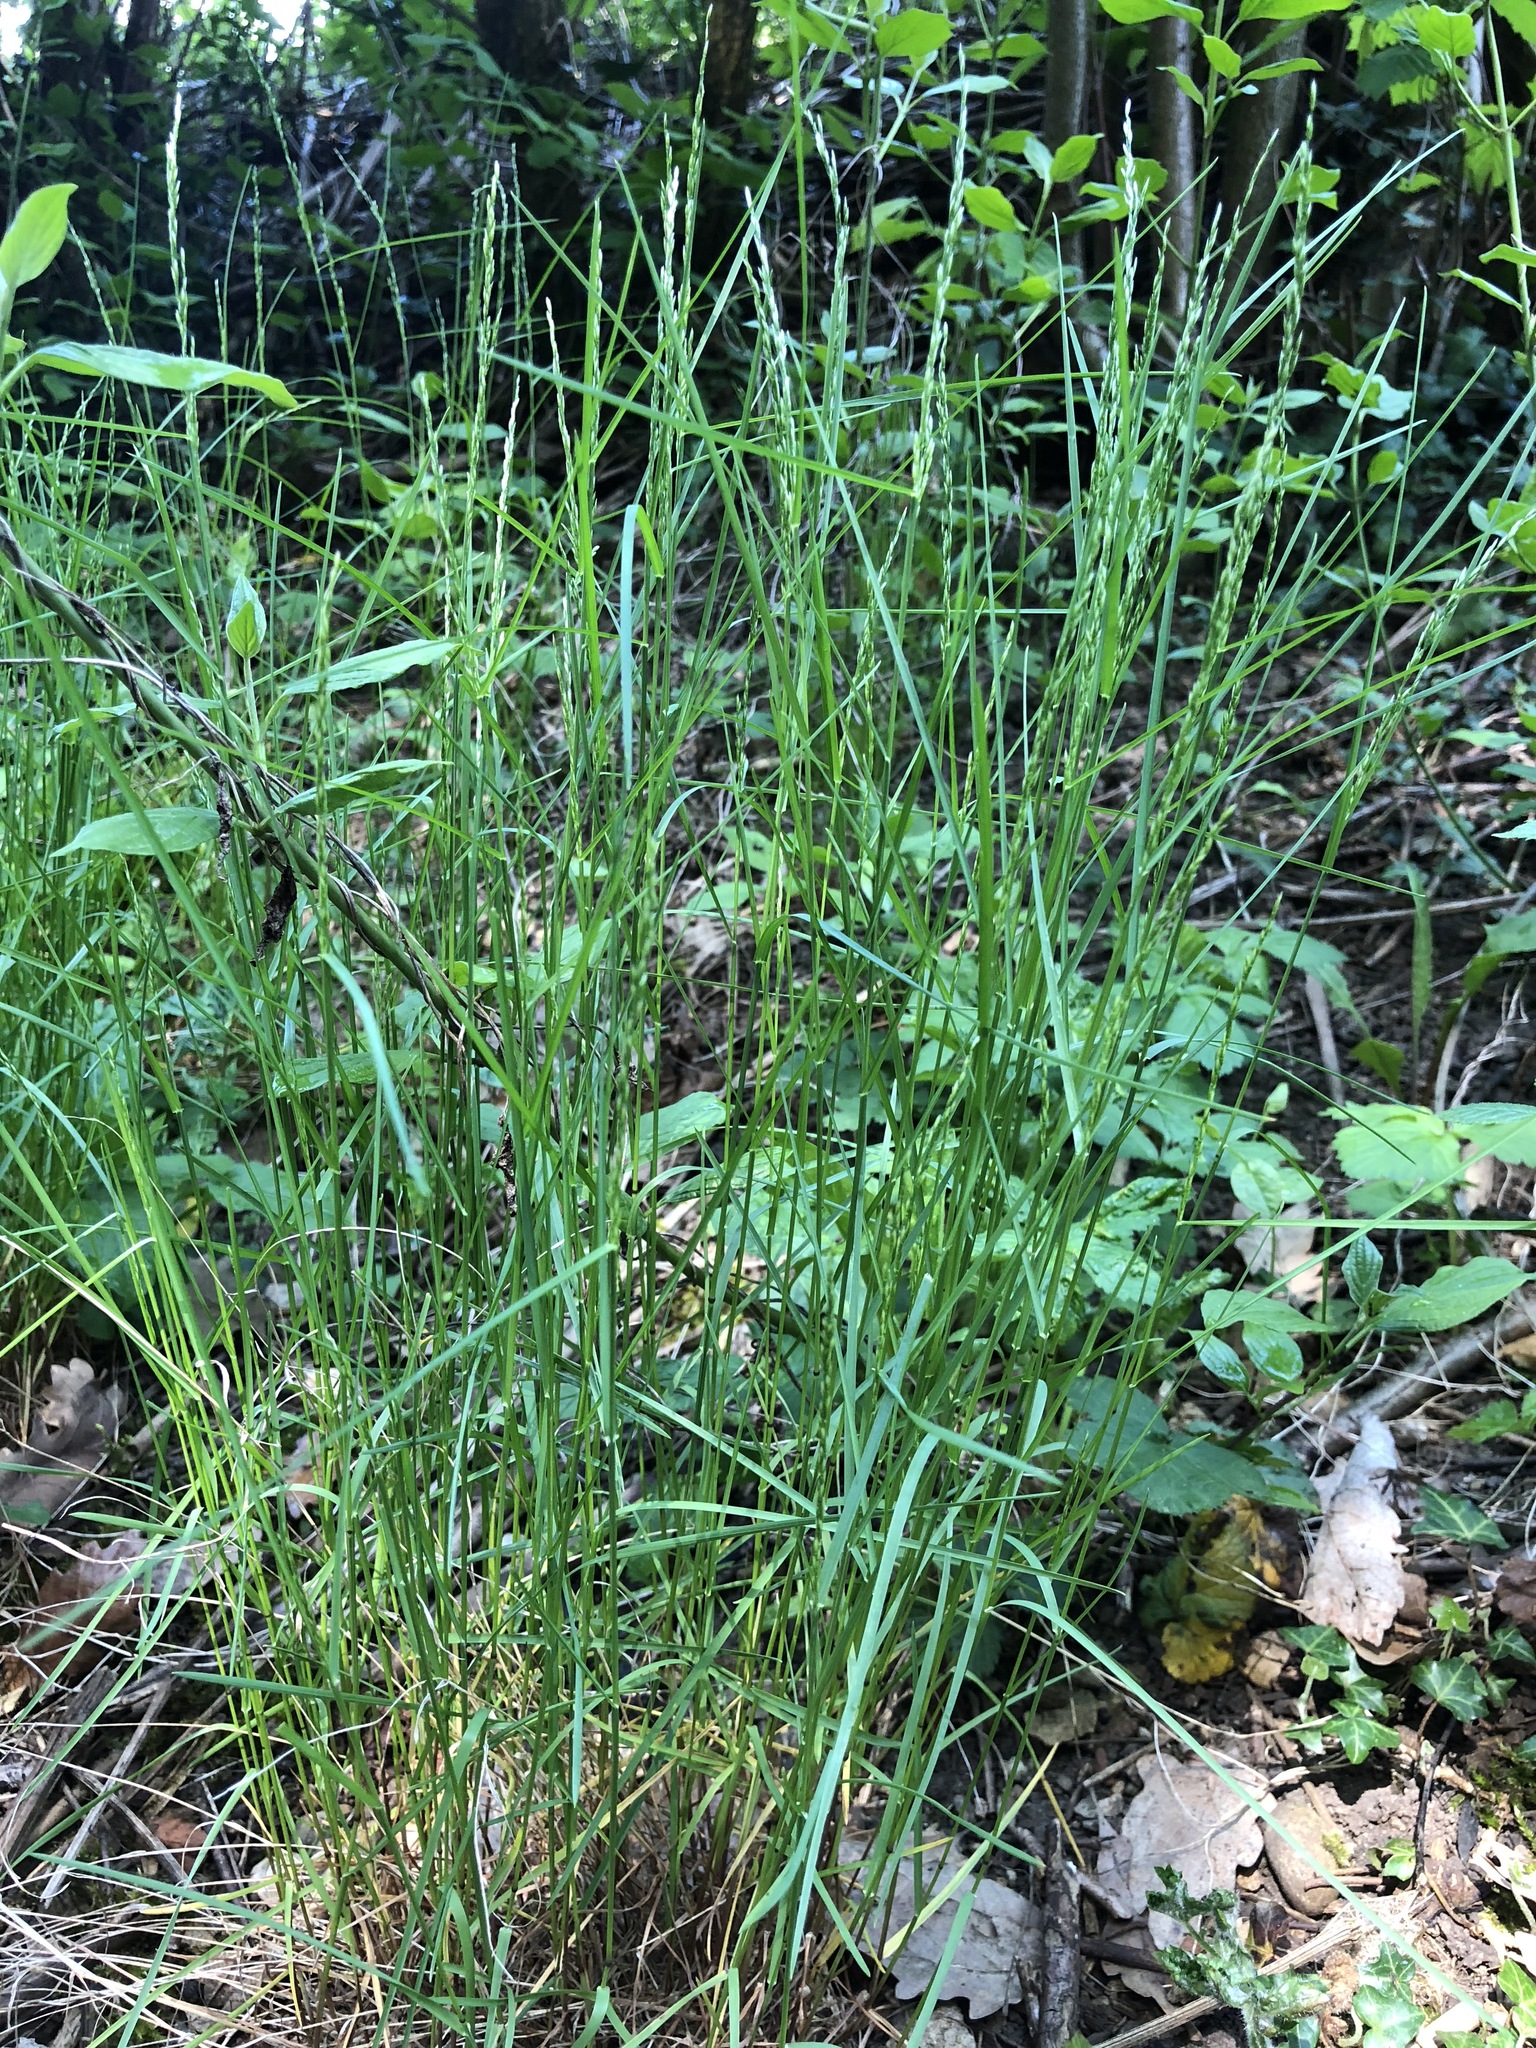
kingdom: Plantae
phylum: Tracheophyta
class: Liliopsida
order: Poales
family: Poaceae
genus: Poa
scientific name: Poa nemoralis
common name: Wood bluegrass
